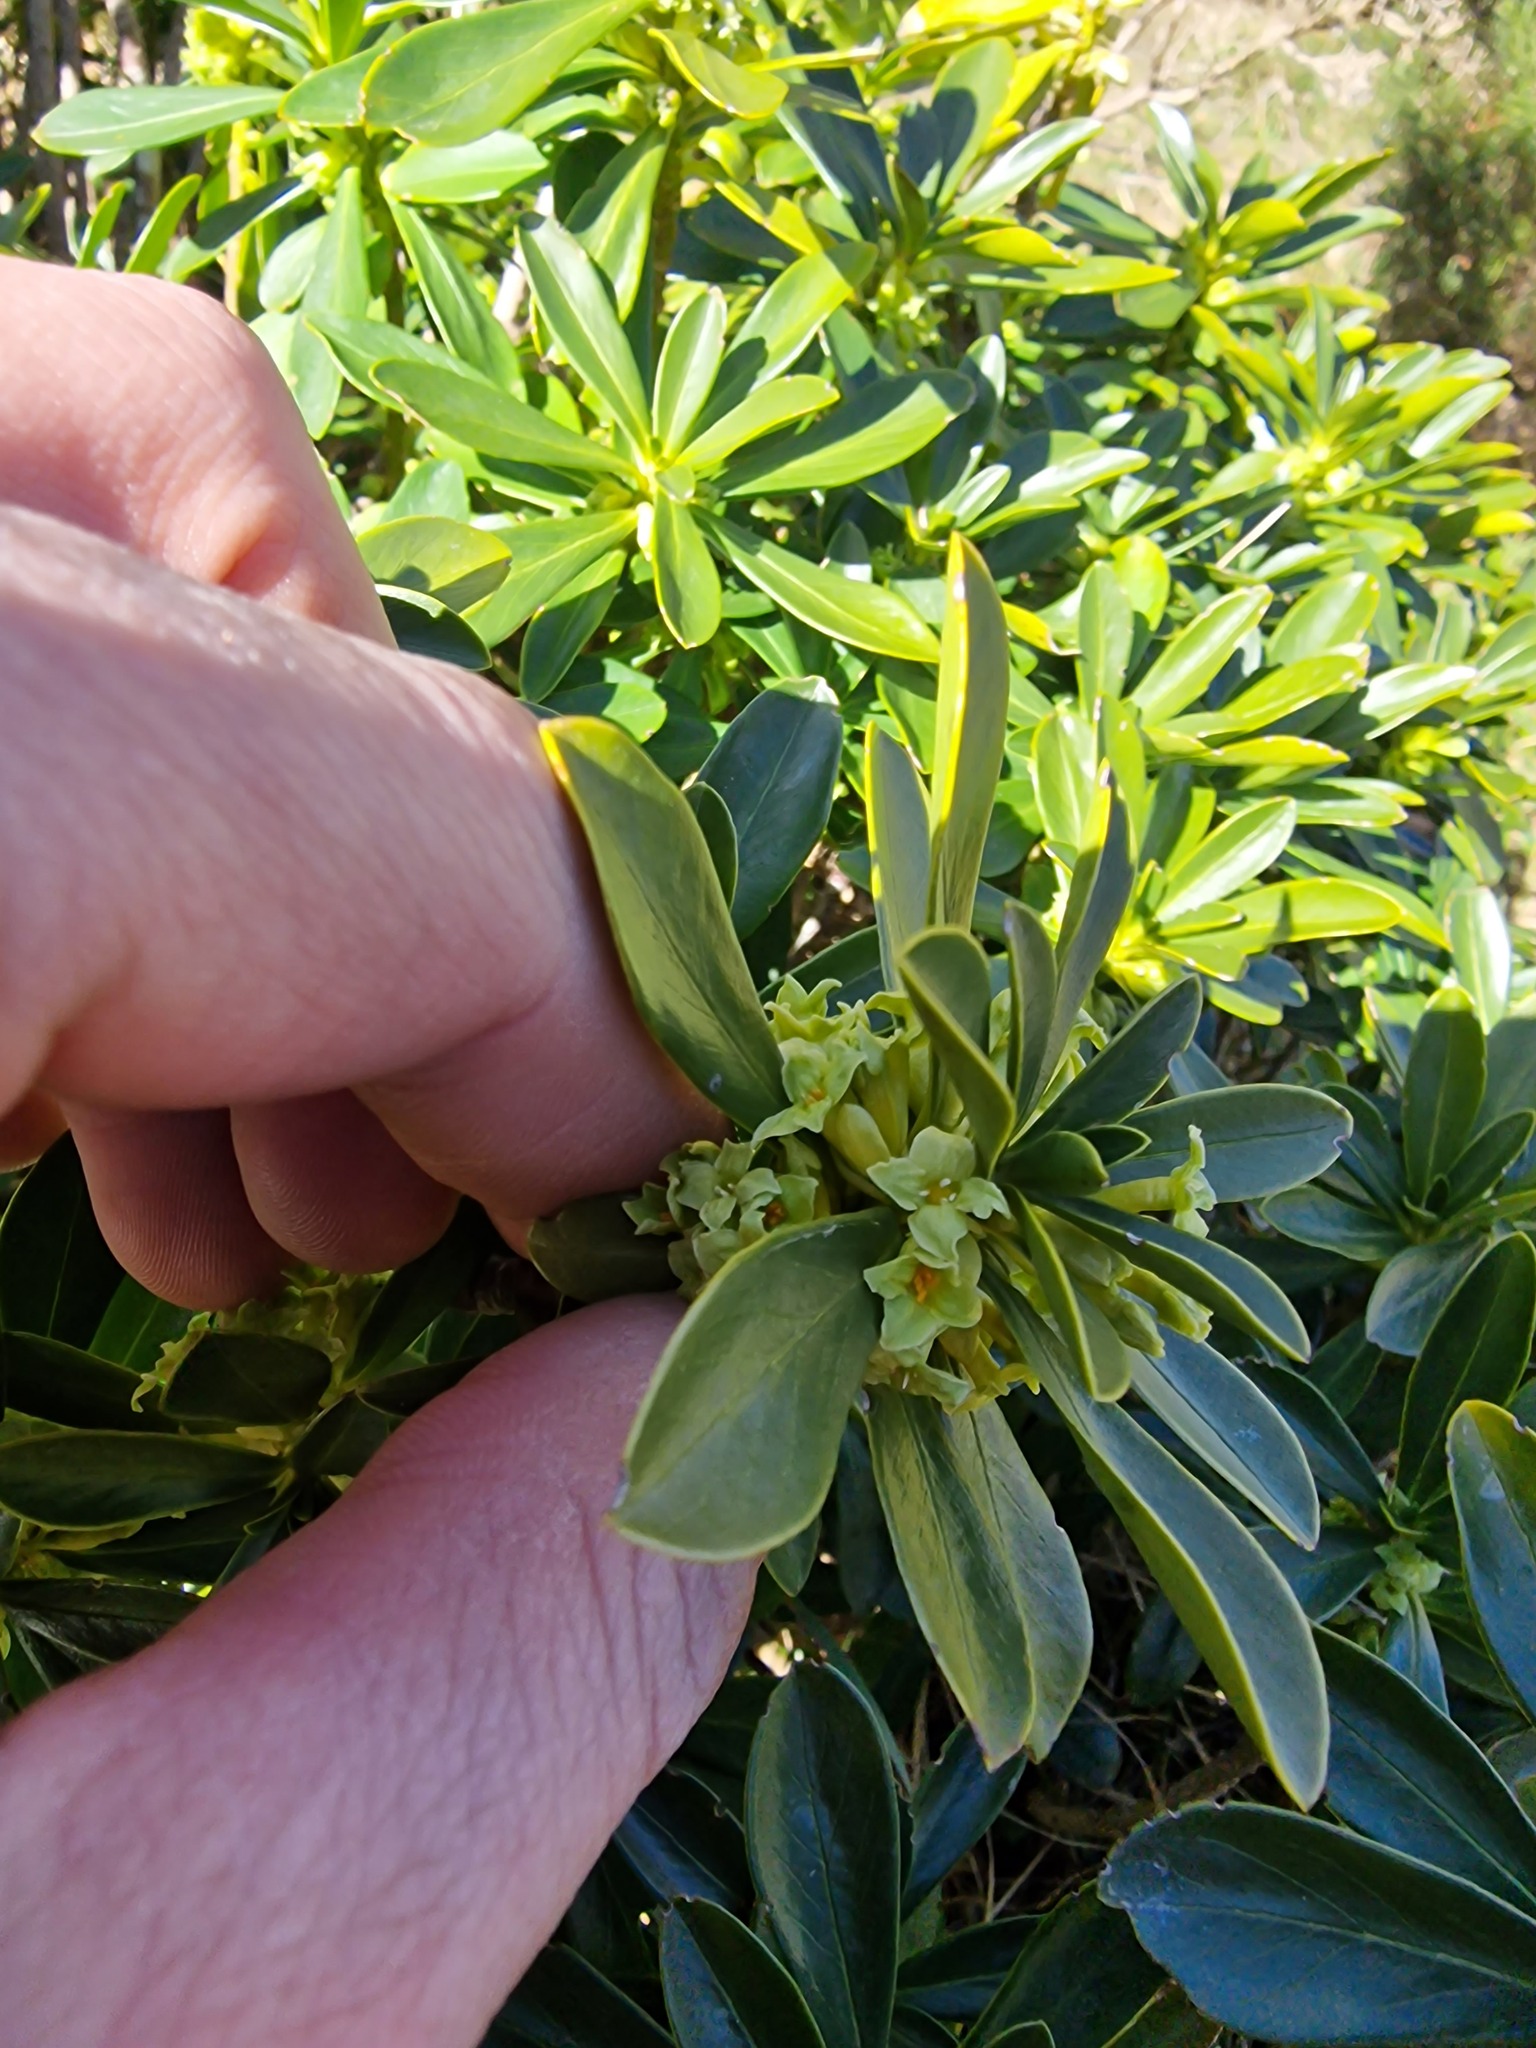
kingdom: Plantae
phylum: Tracheophyta
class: Magnoliopsida
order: Malvales
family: Thymelaeaceae
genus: Daphne
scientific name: Daphne laureola
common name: Spurge-laurel
